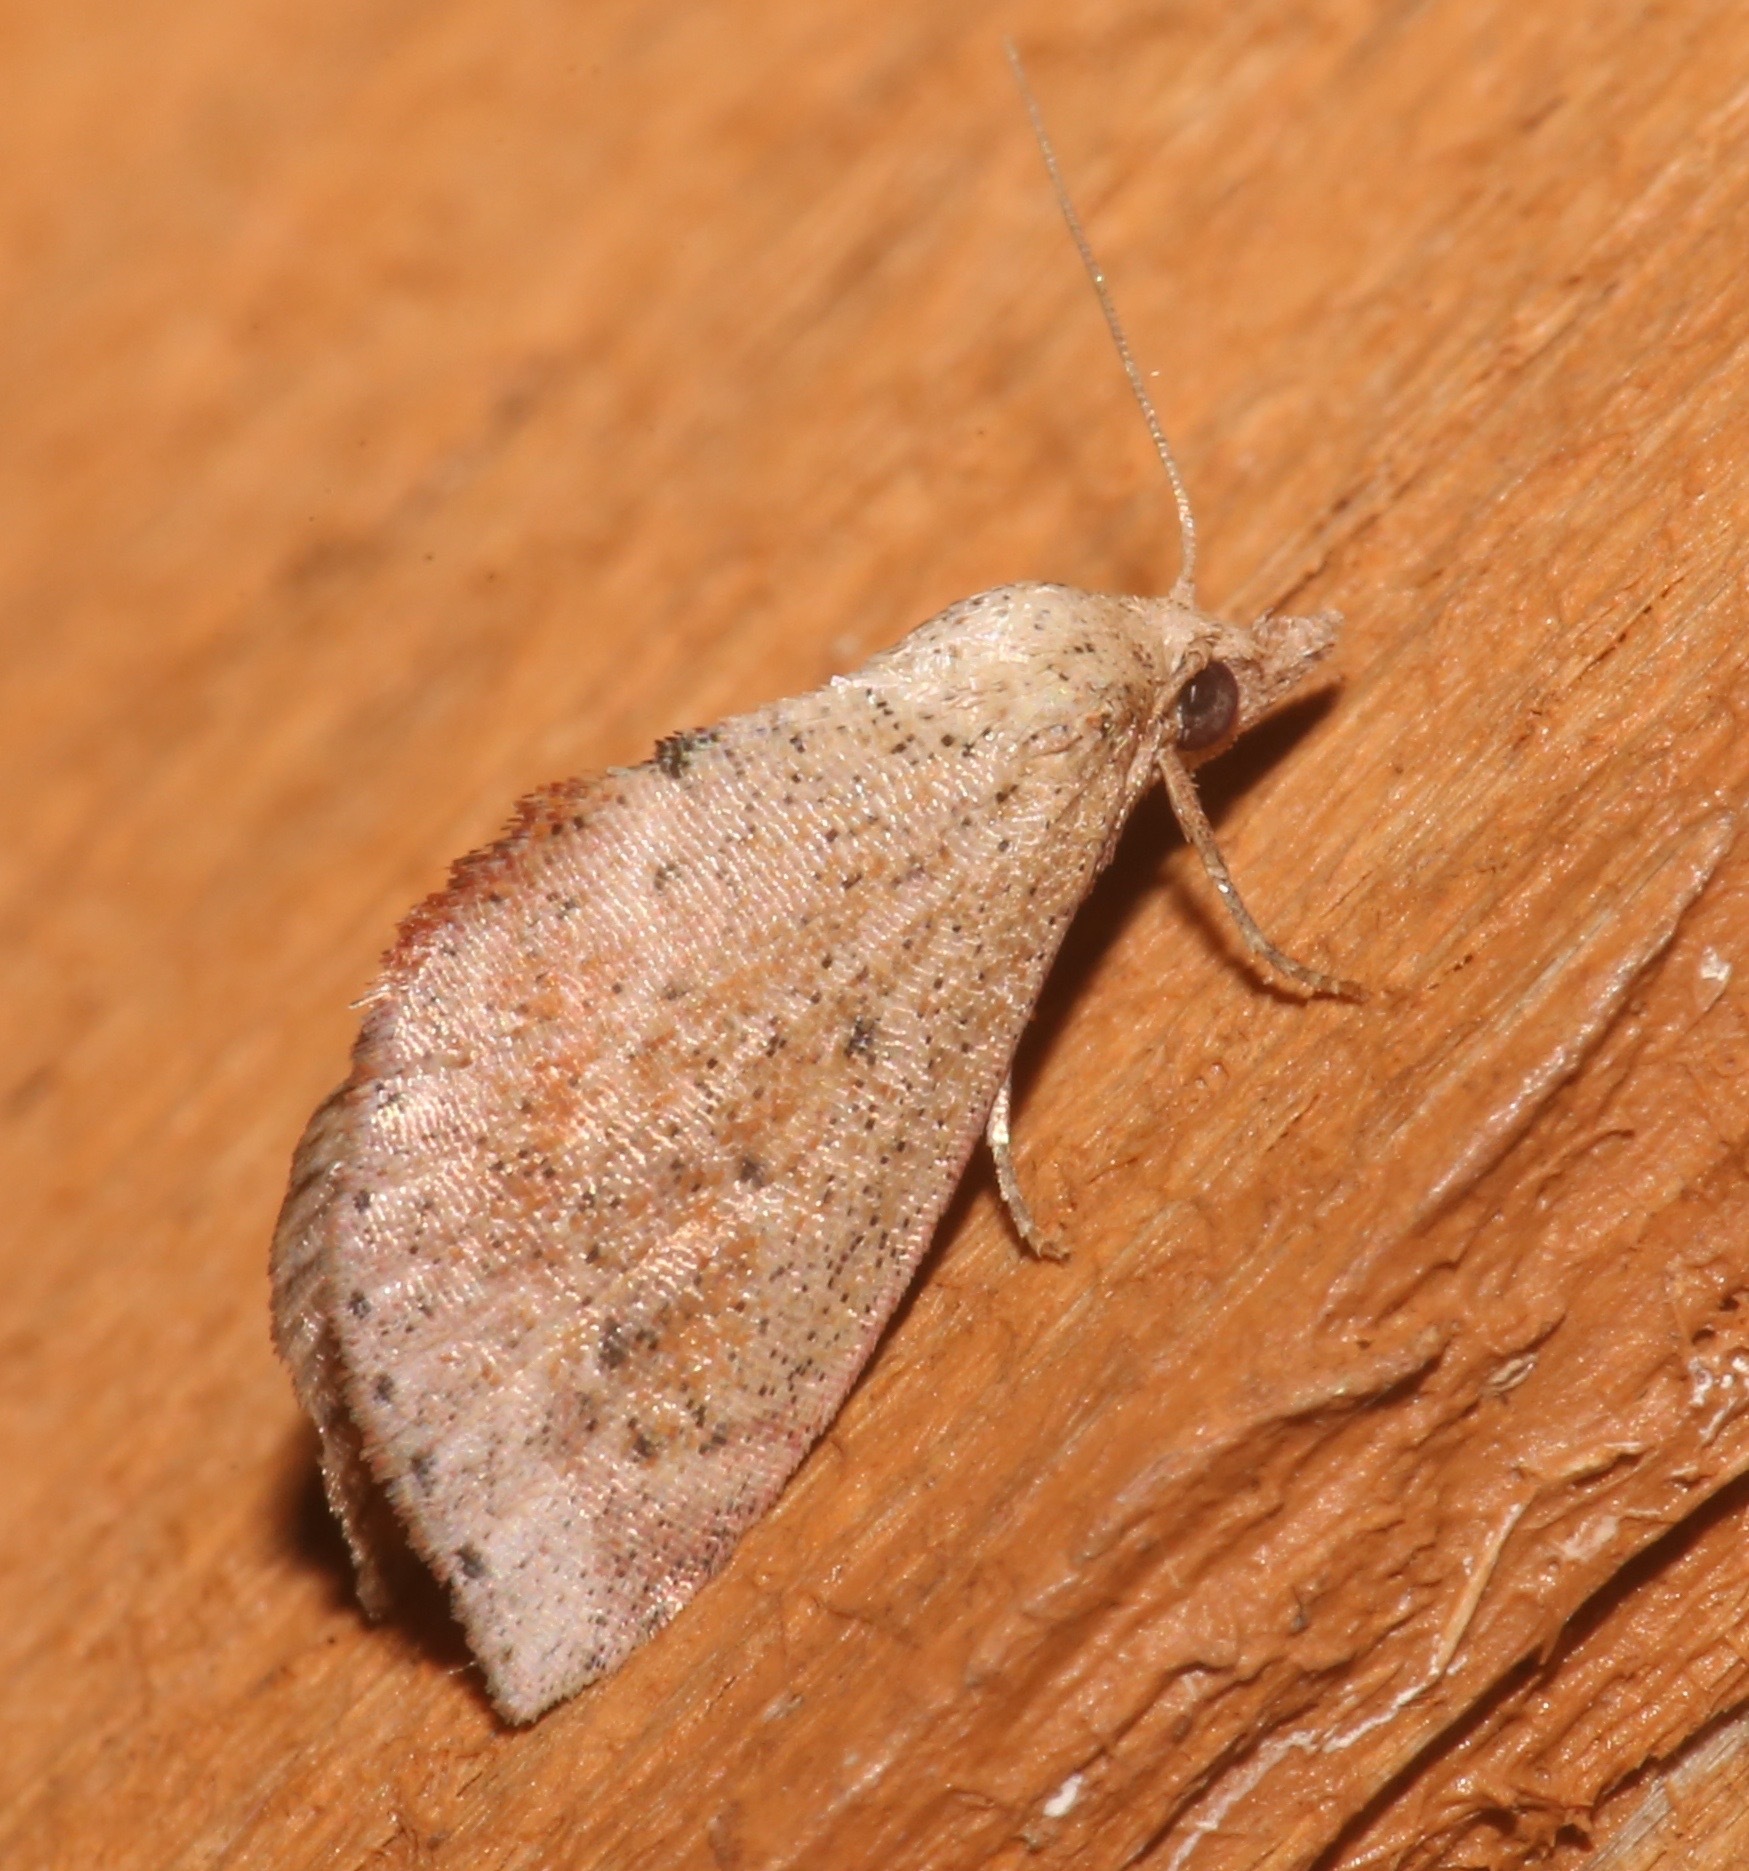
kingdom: Animalia
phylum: Arthropoda
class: Insecta
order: Lepidoptera
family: Noctuidae
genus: Proroblemma
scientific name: Proroblemma testa
